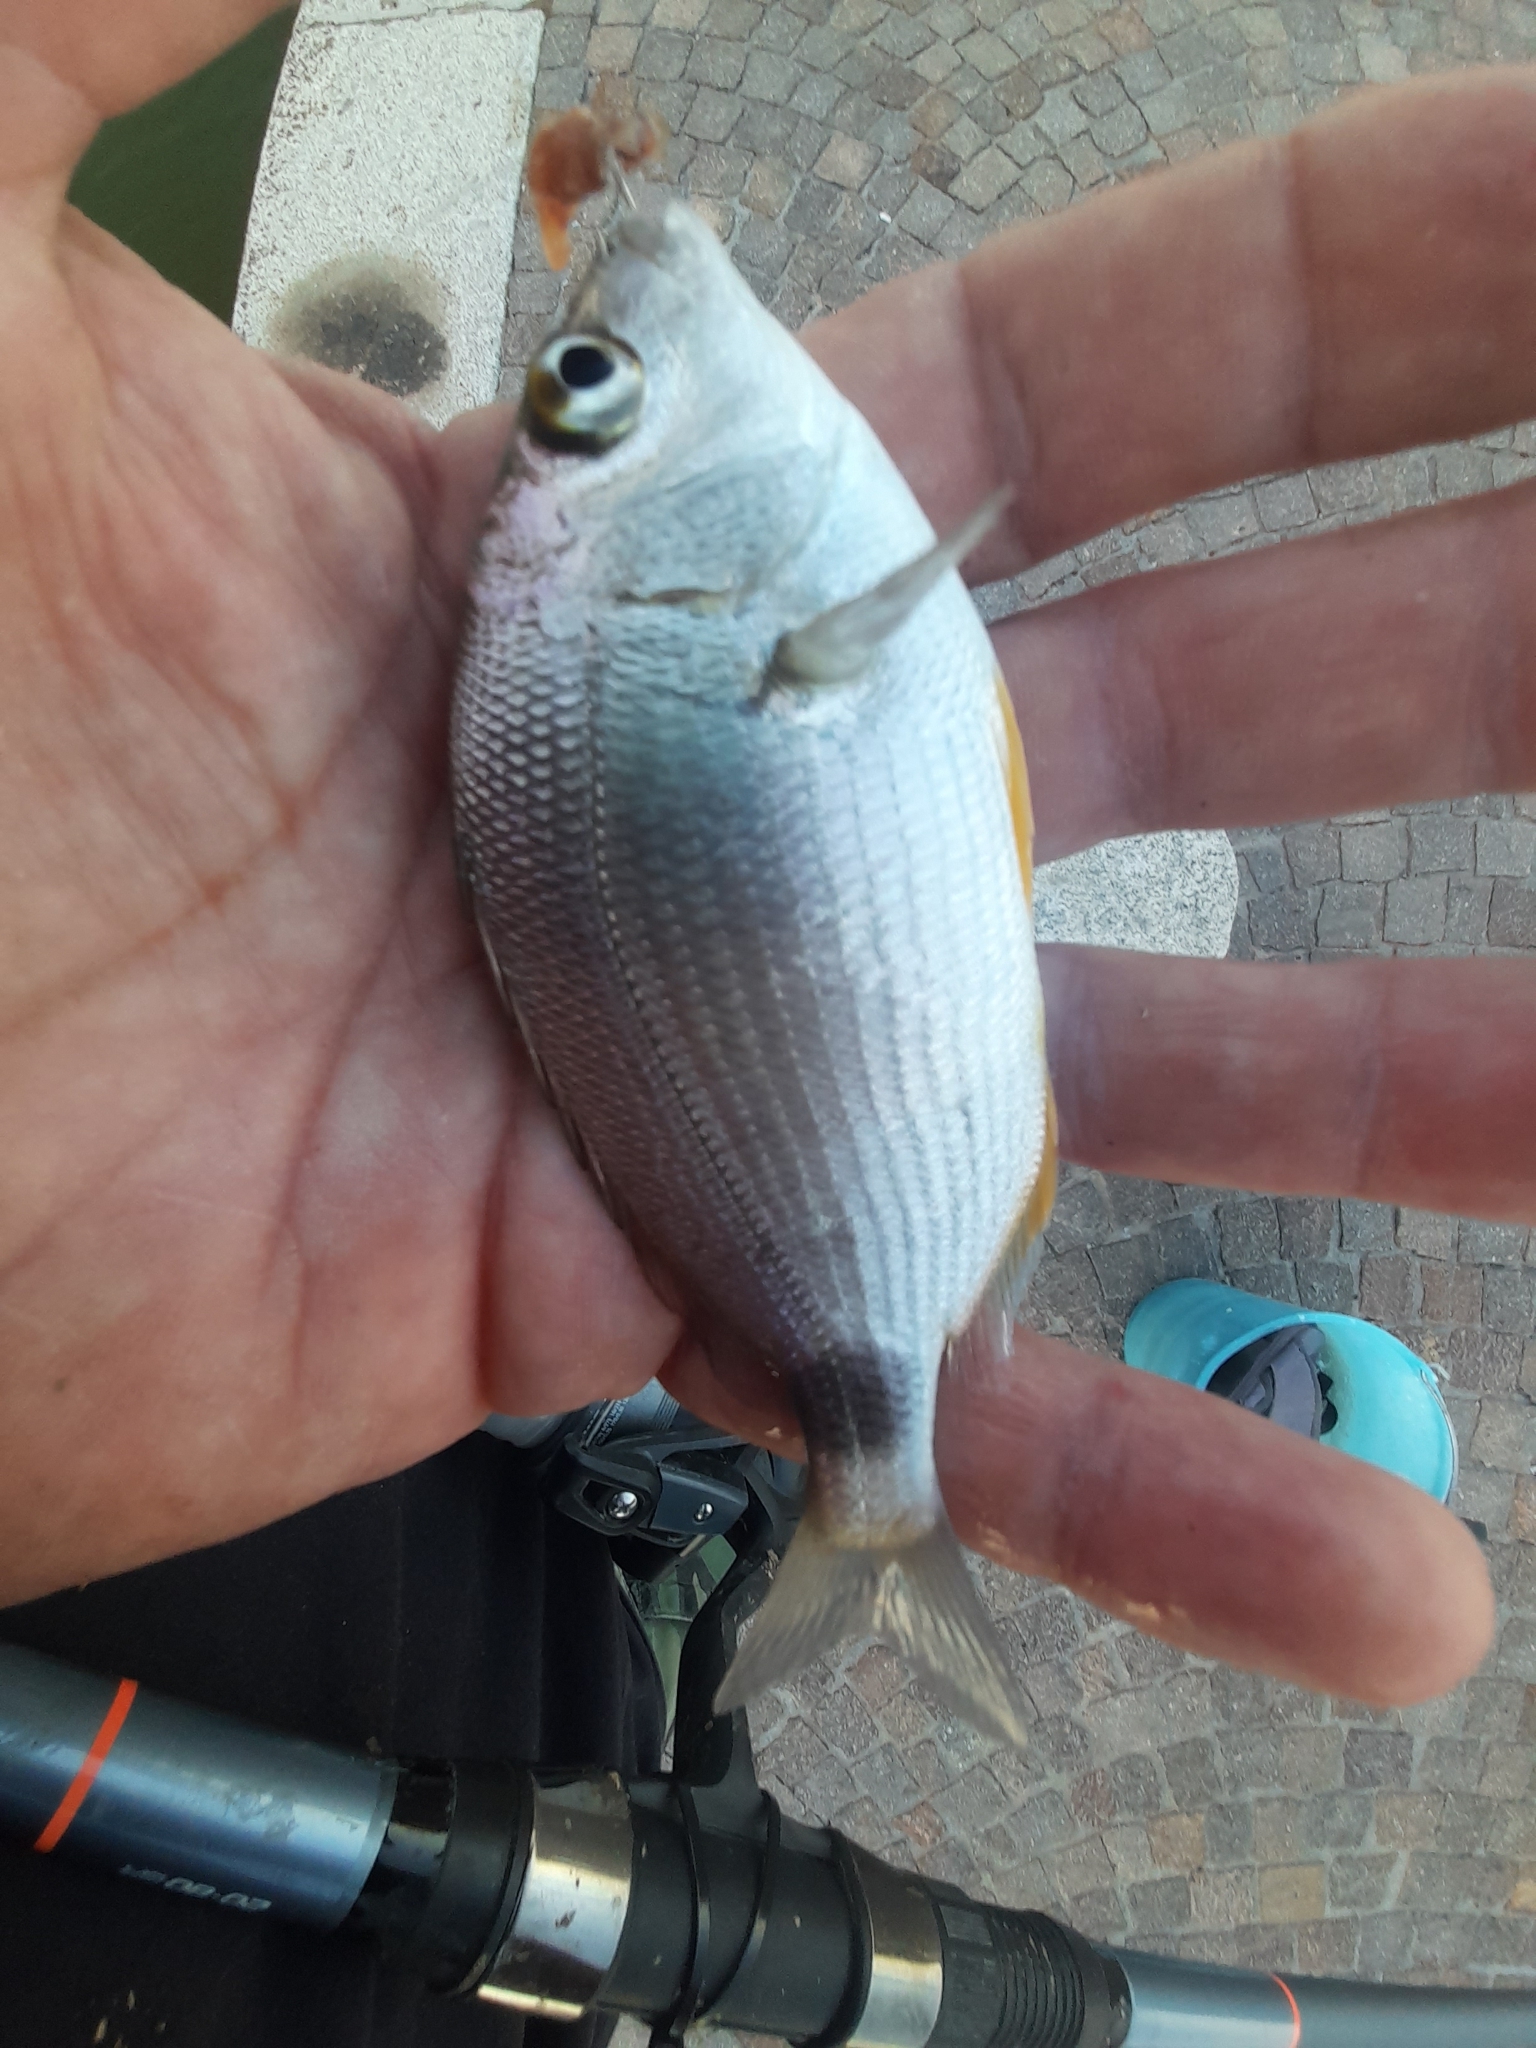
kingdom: Animalia
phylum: Chordata
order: Perciformes
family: Sparidae
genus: Diplodus
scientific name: Diplodus annularis
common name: Annular seabream
